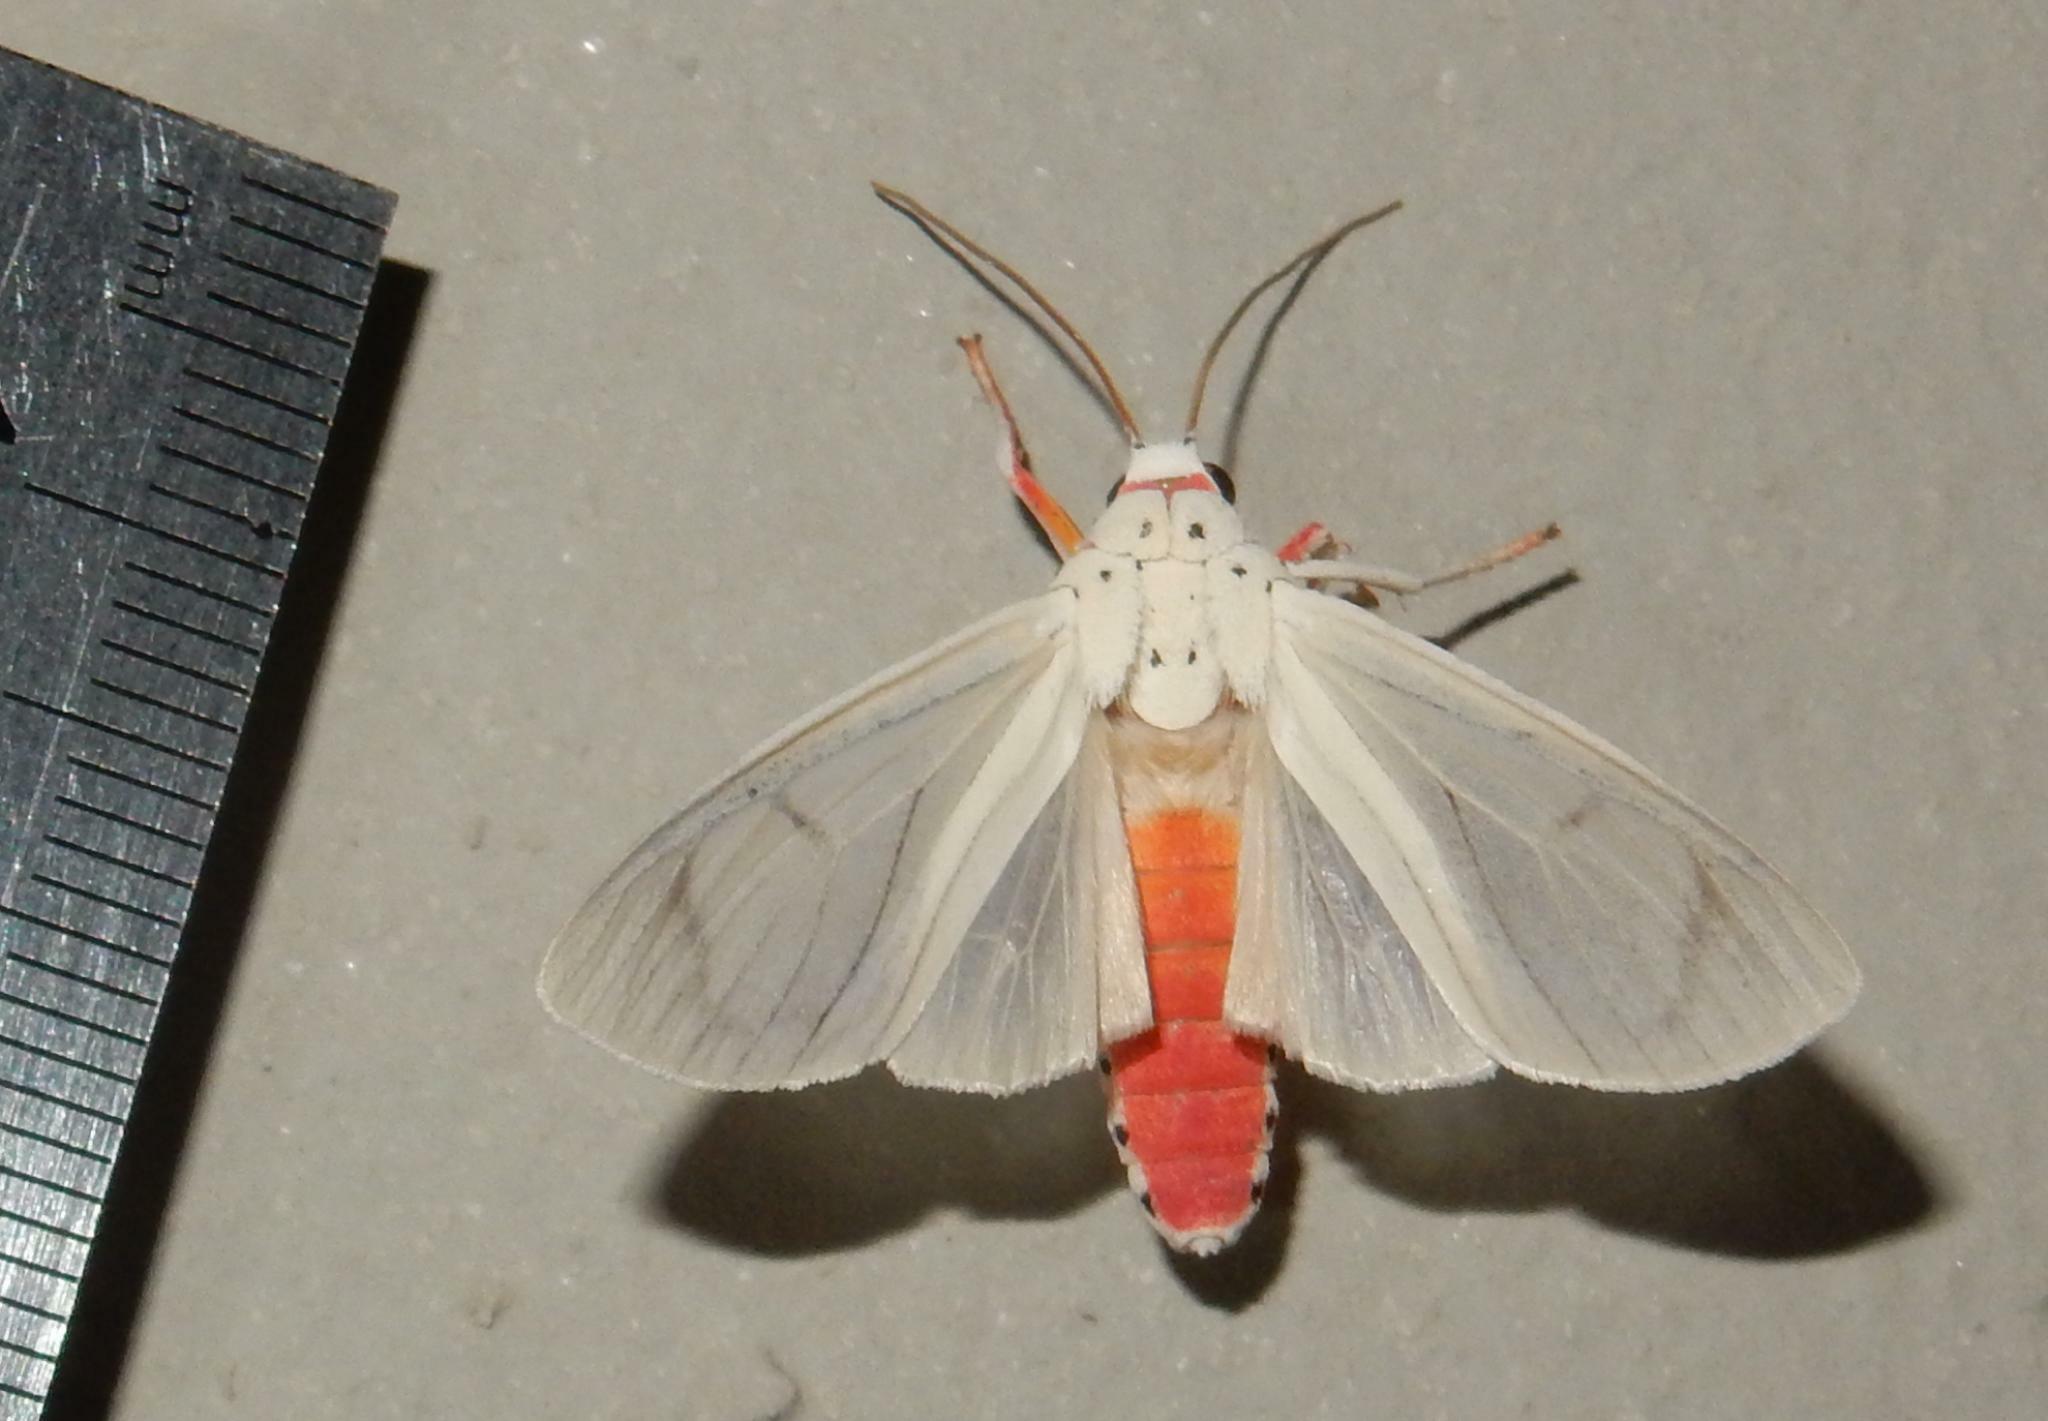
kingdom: Animalia
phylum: Arthropoda
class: Insecta
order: Lepidoptera
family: Erebidae
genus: Amerila
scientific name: Amerila lupia
